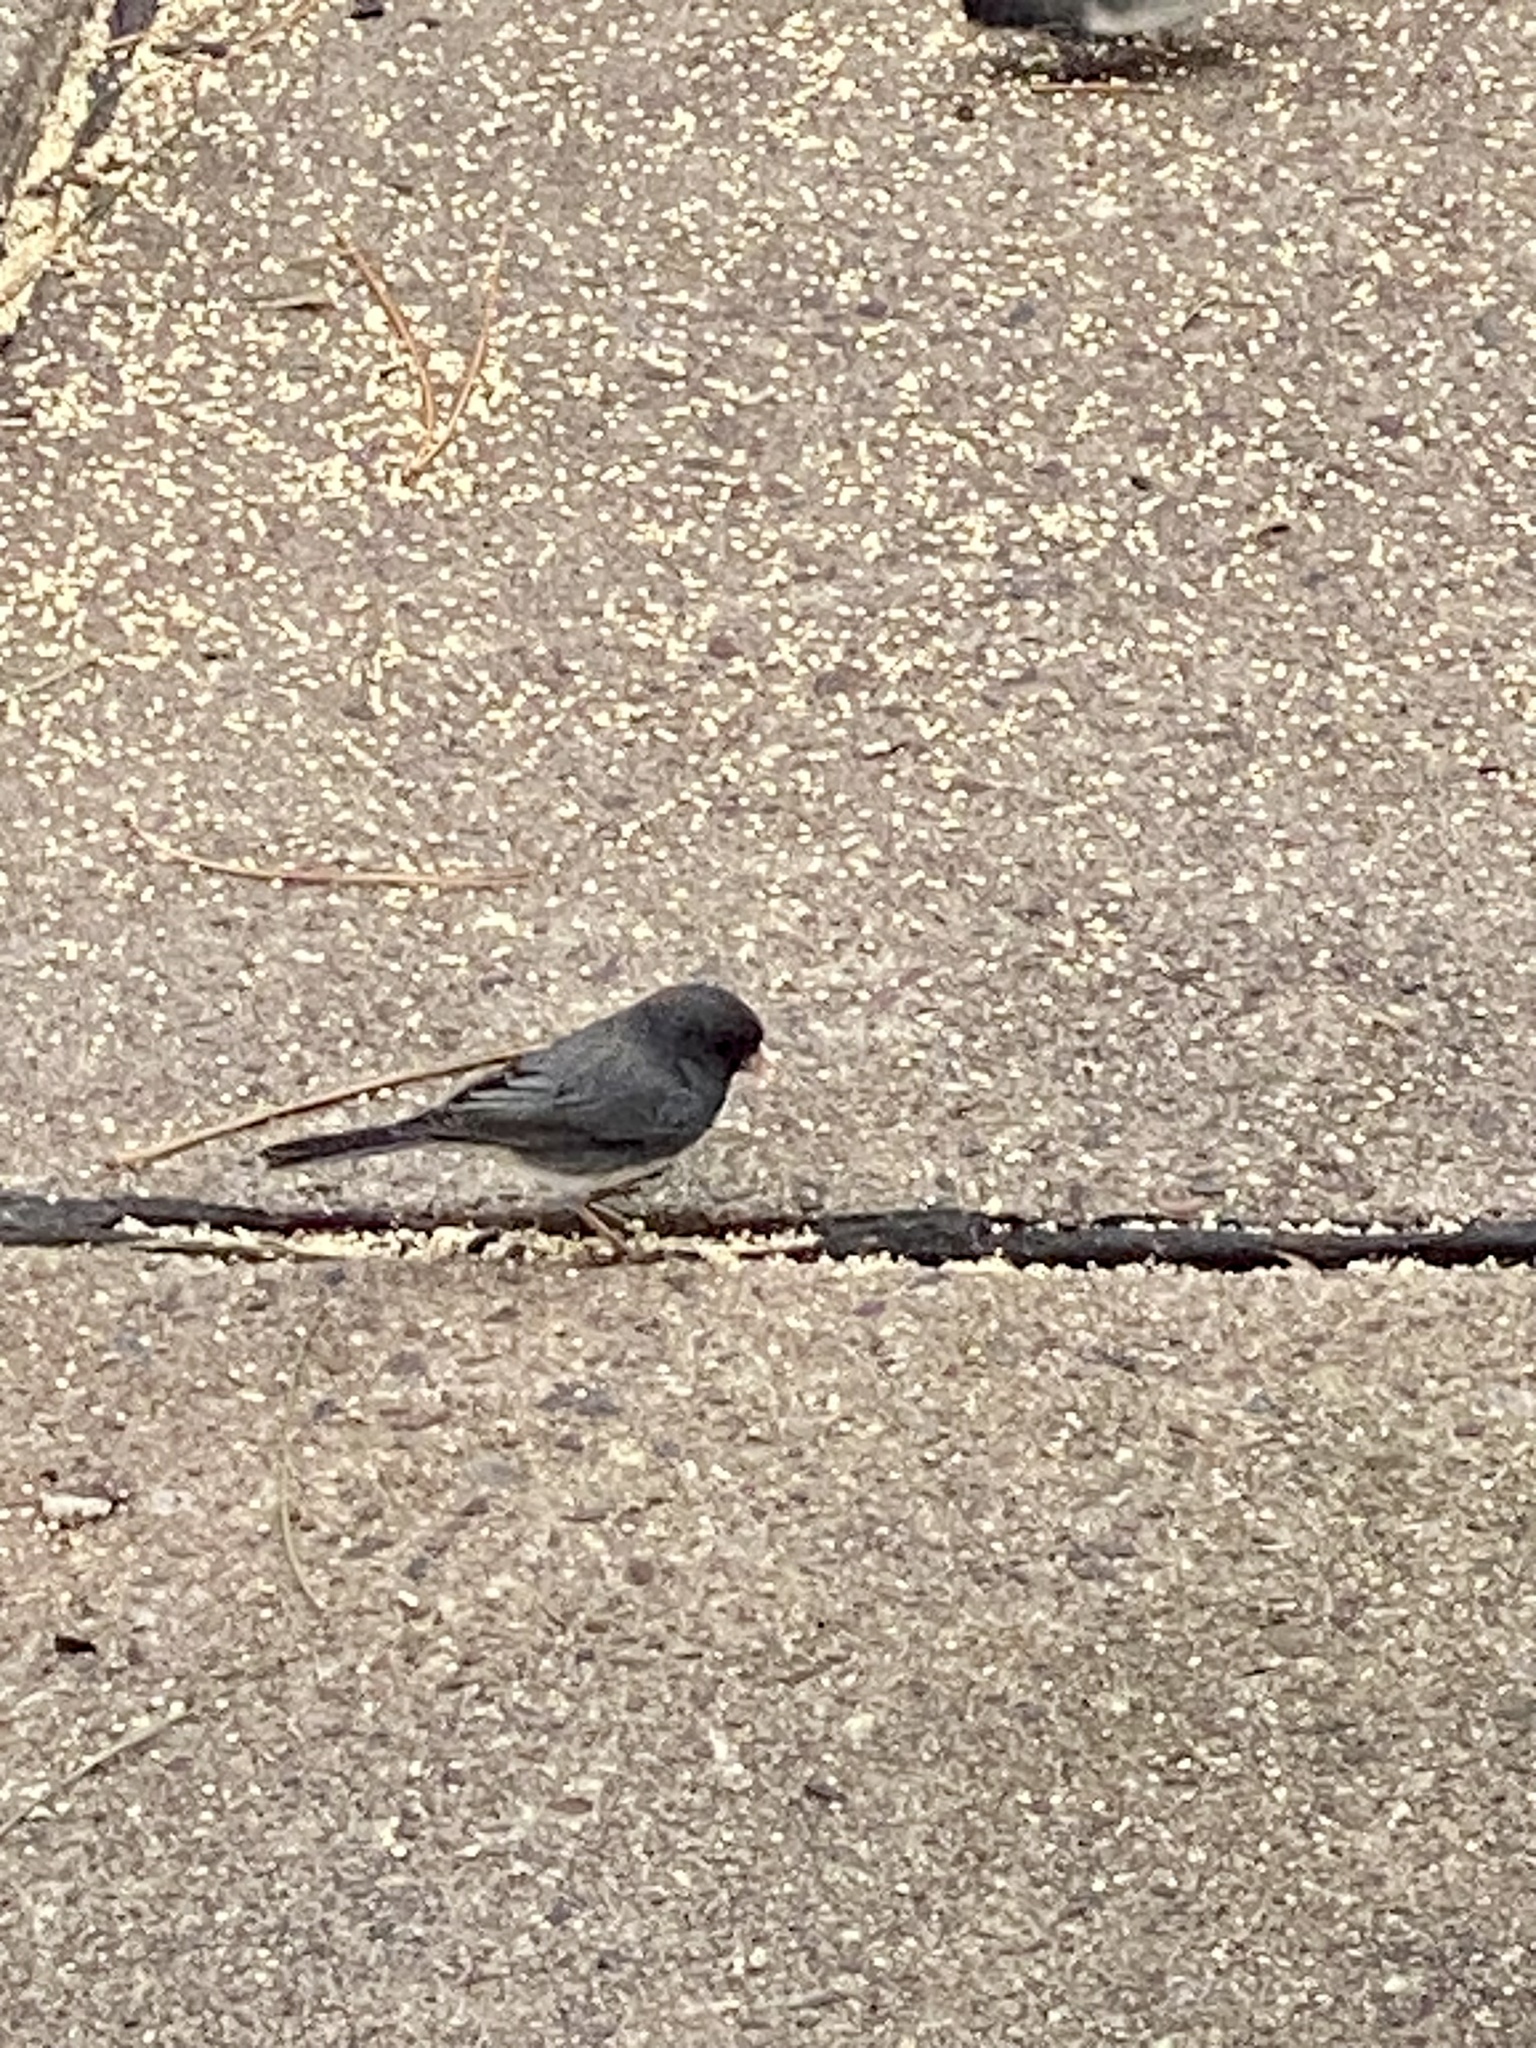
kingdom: Animalia
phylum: Chordata
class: Aves
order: Passeriformes
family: Passerellidae
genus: Junco
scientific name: Junco hyemalis
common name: Dark-eyed junco
